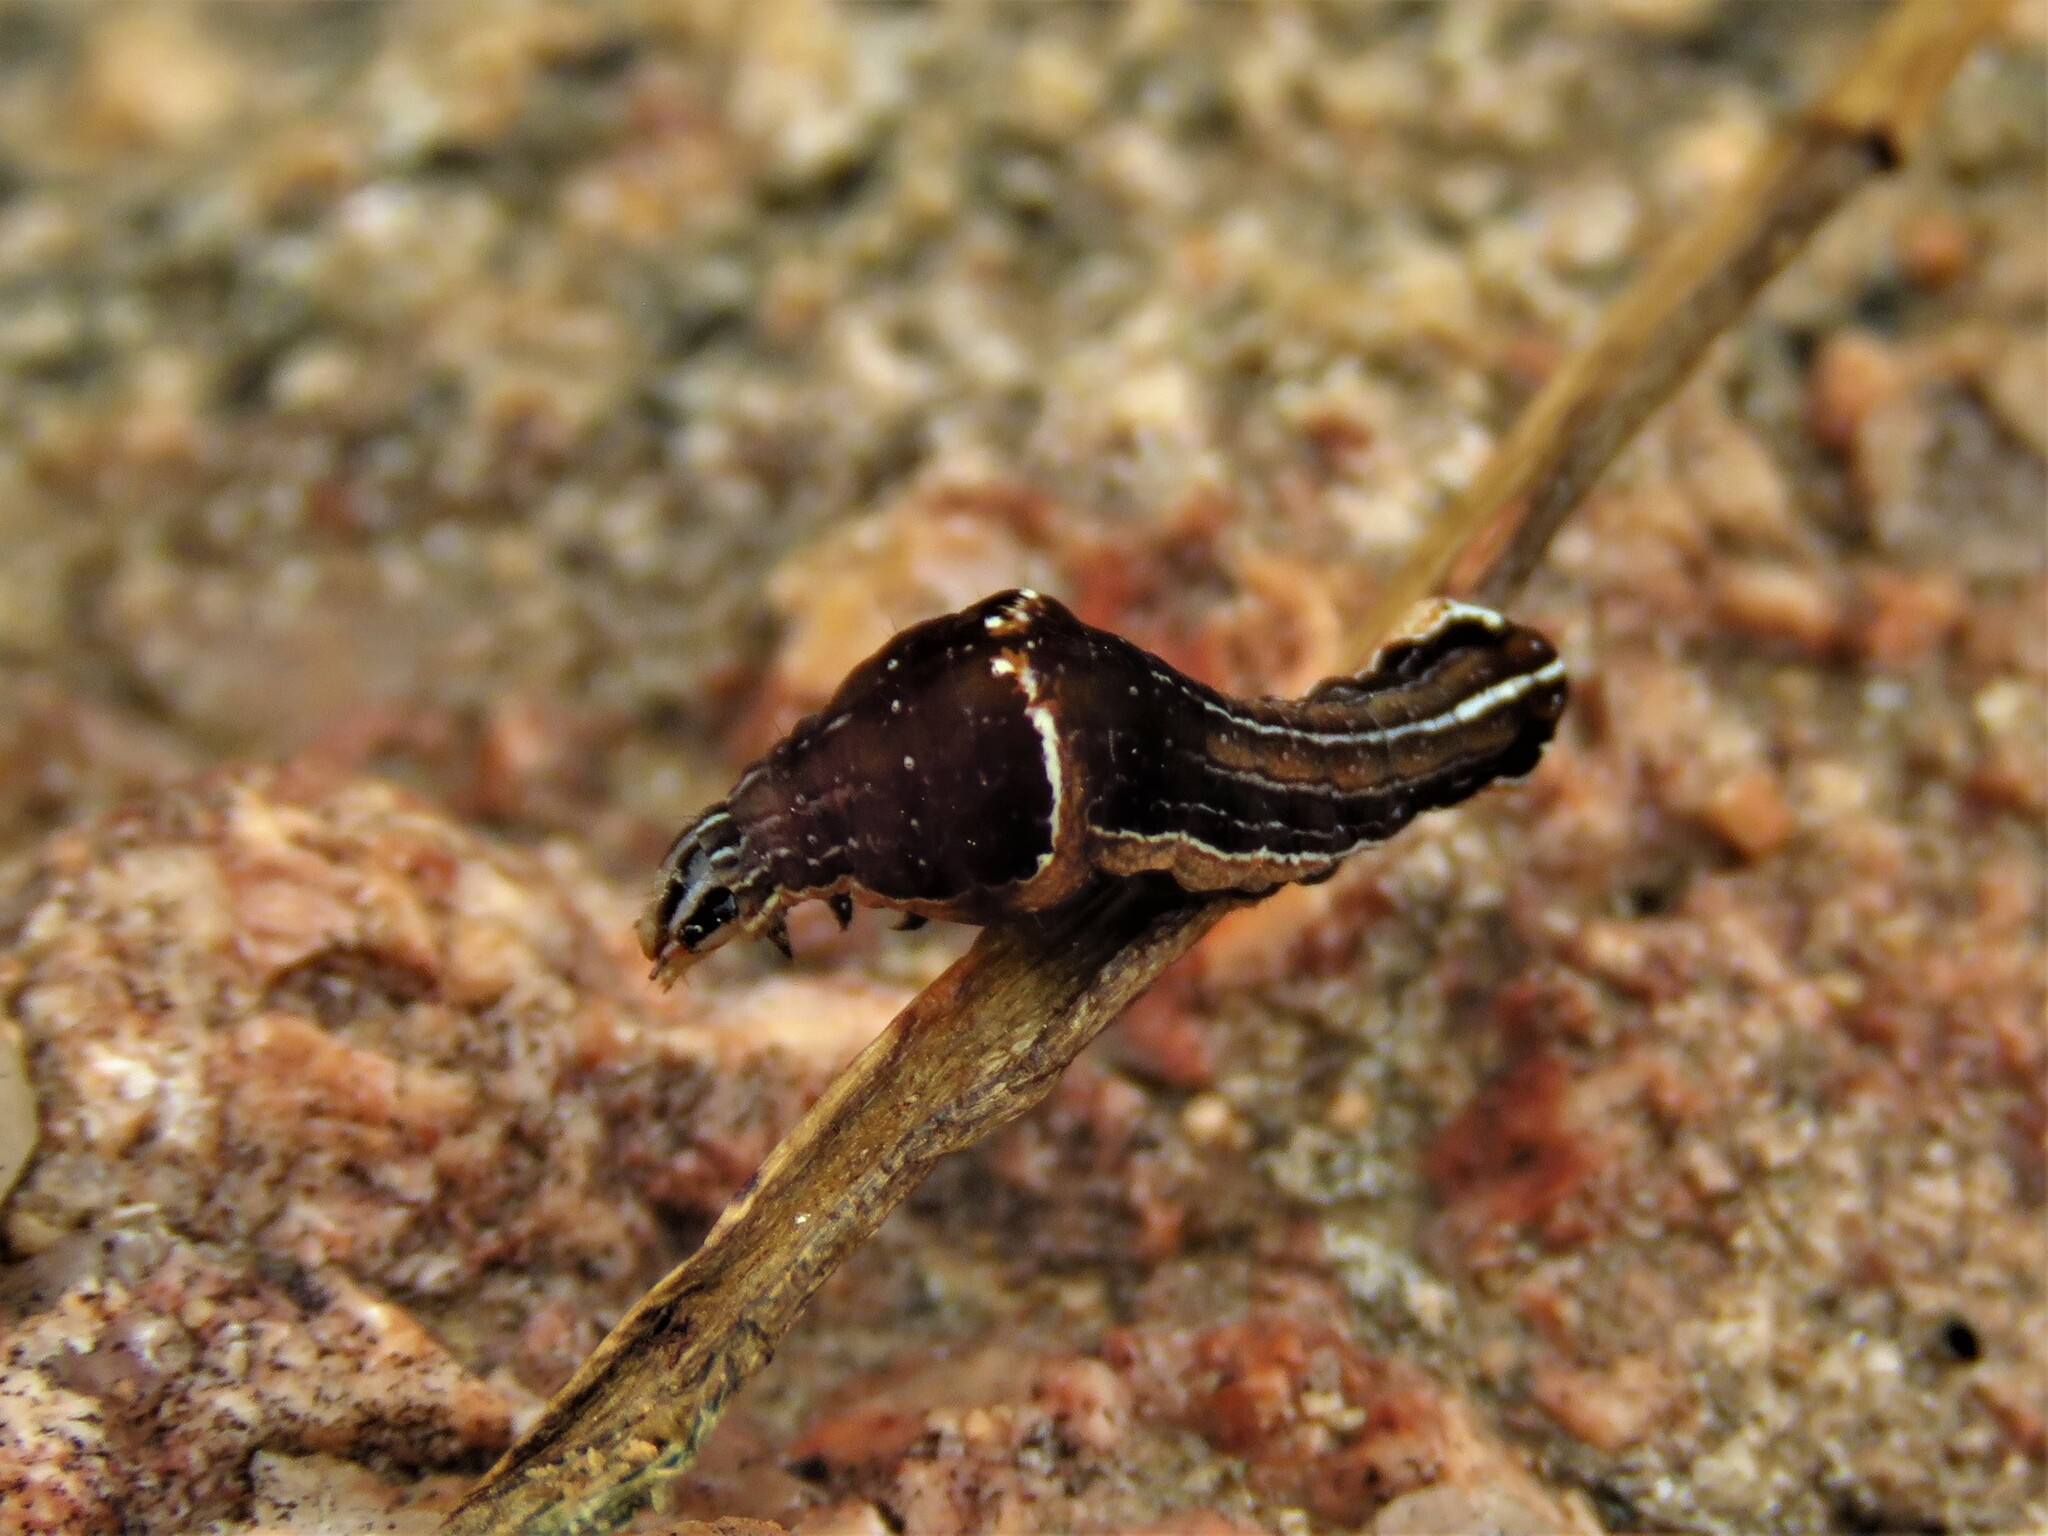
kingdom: Animalia
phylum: Arthropoda
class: Insecta
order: Lepidoptera
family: Noctuidae
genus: Galgula
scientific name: Galgula partita
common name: Wedgeling
